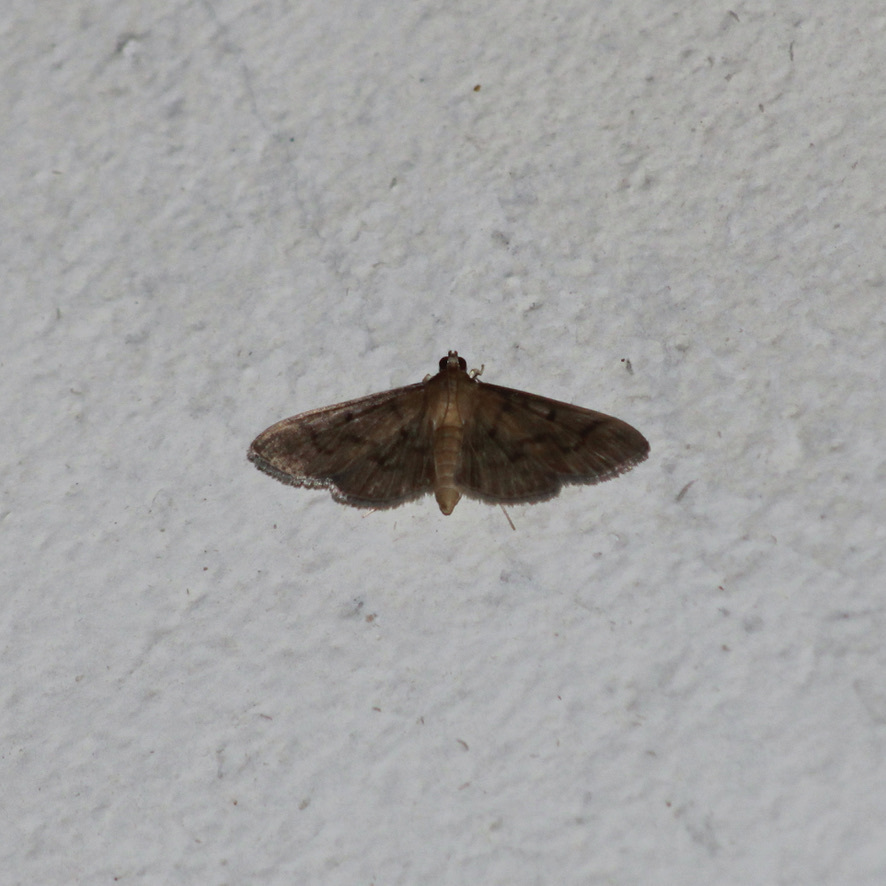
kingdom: Animalia
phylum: Arthropoda
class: Insecta
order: Lepidoptera
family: Crambidae
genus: Herpetogramma
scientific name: Herpetogramma phaeopteralis
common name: Dusky herpetogramma moth
